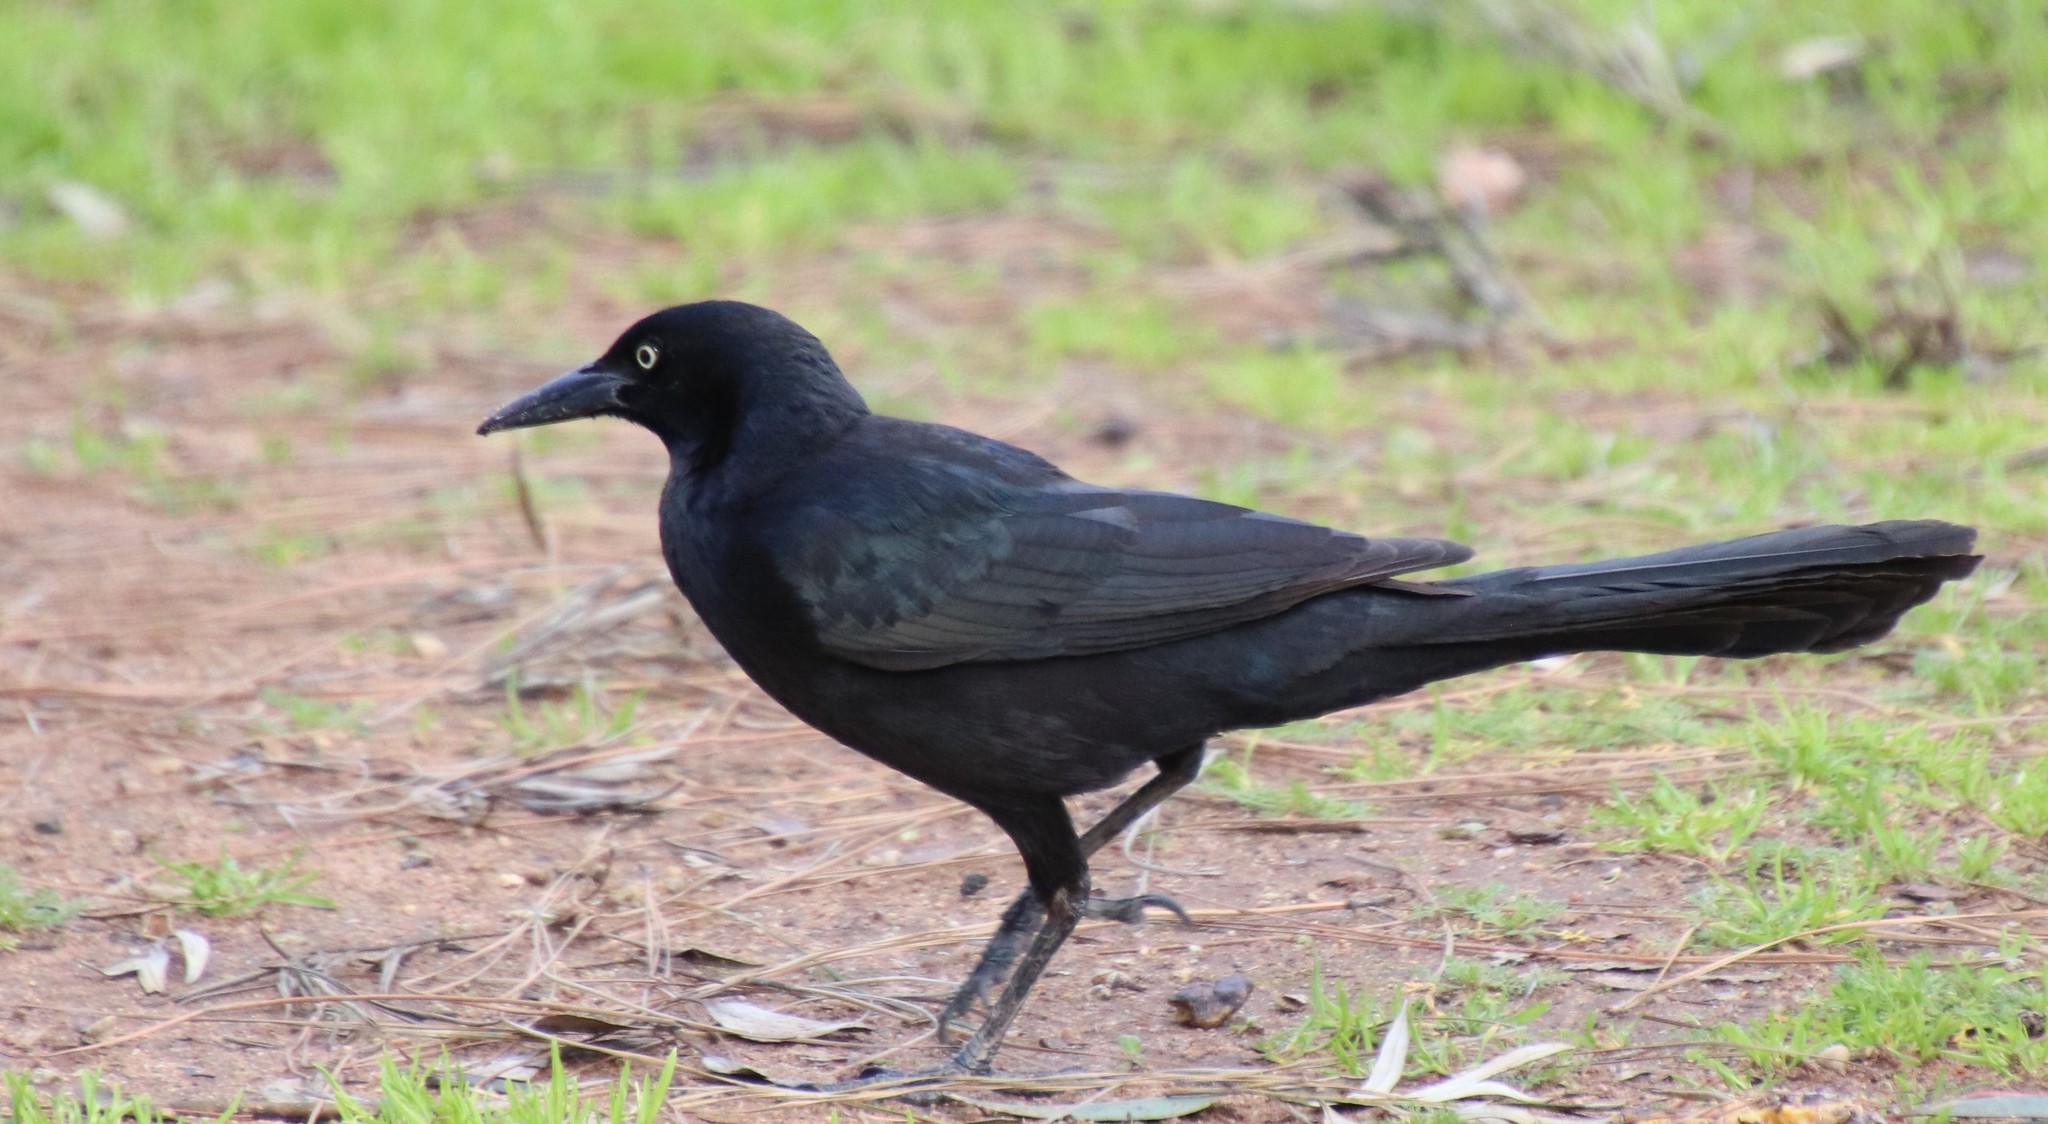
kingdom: Animalia
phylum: Chordata
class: Aves
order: Passeriformes
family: Icteridae
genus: Quiscalus
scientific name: Quiscalus mexicanus
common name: Great-tailed grackle
